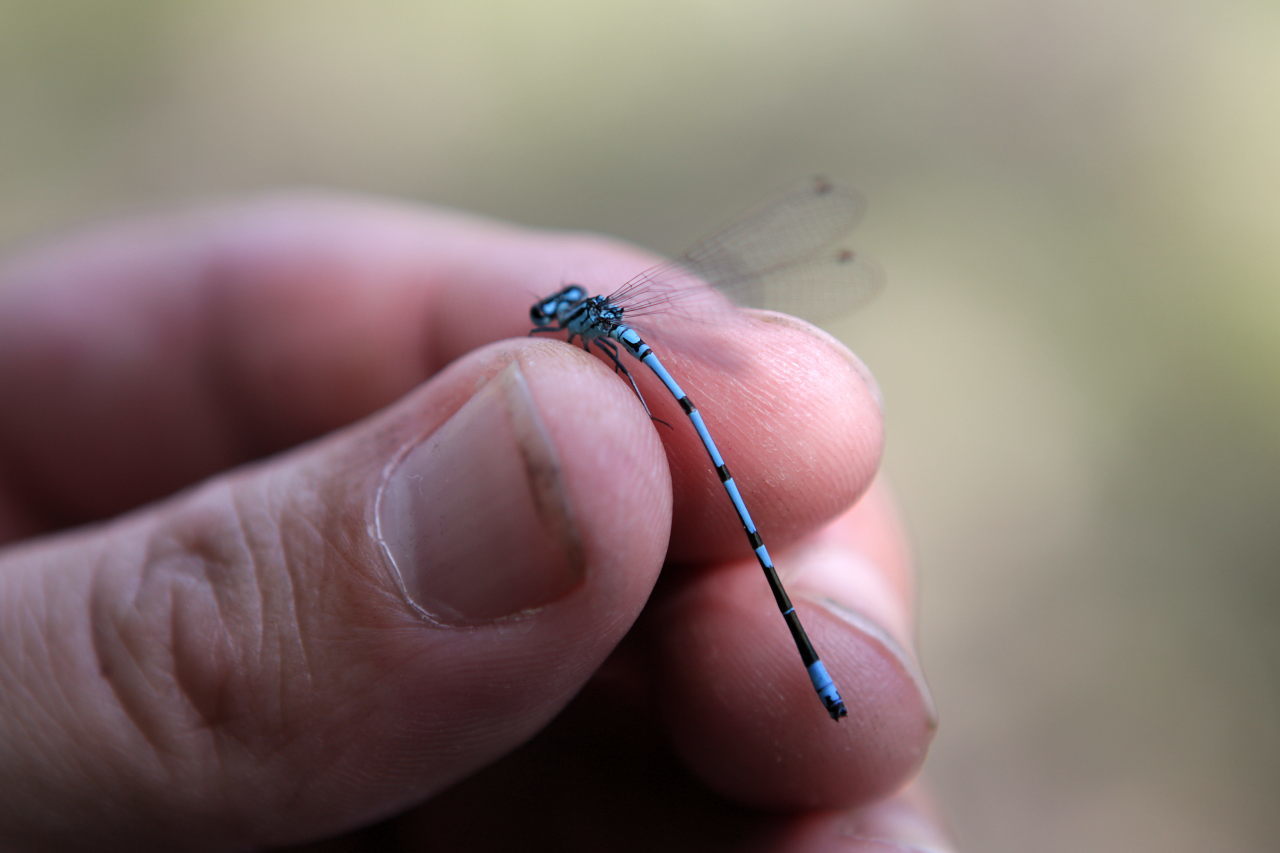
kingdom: Animalia
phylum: Arthropoda
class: Insecta
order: Odonata
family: Coenagrionidae
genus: Coenagrion
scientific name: Coenagrion puella
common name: Azure damselfly
